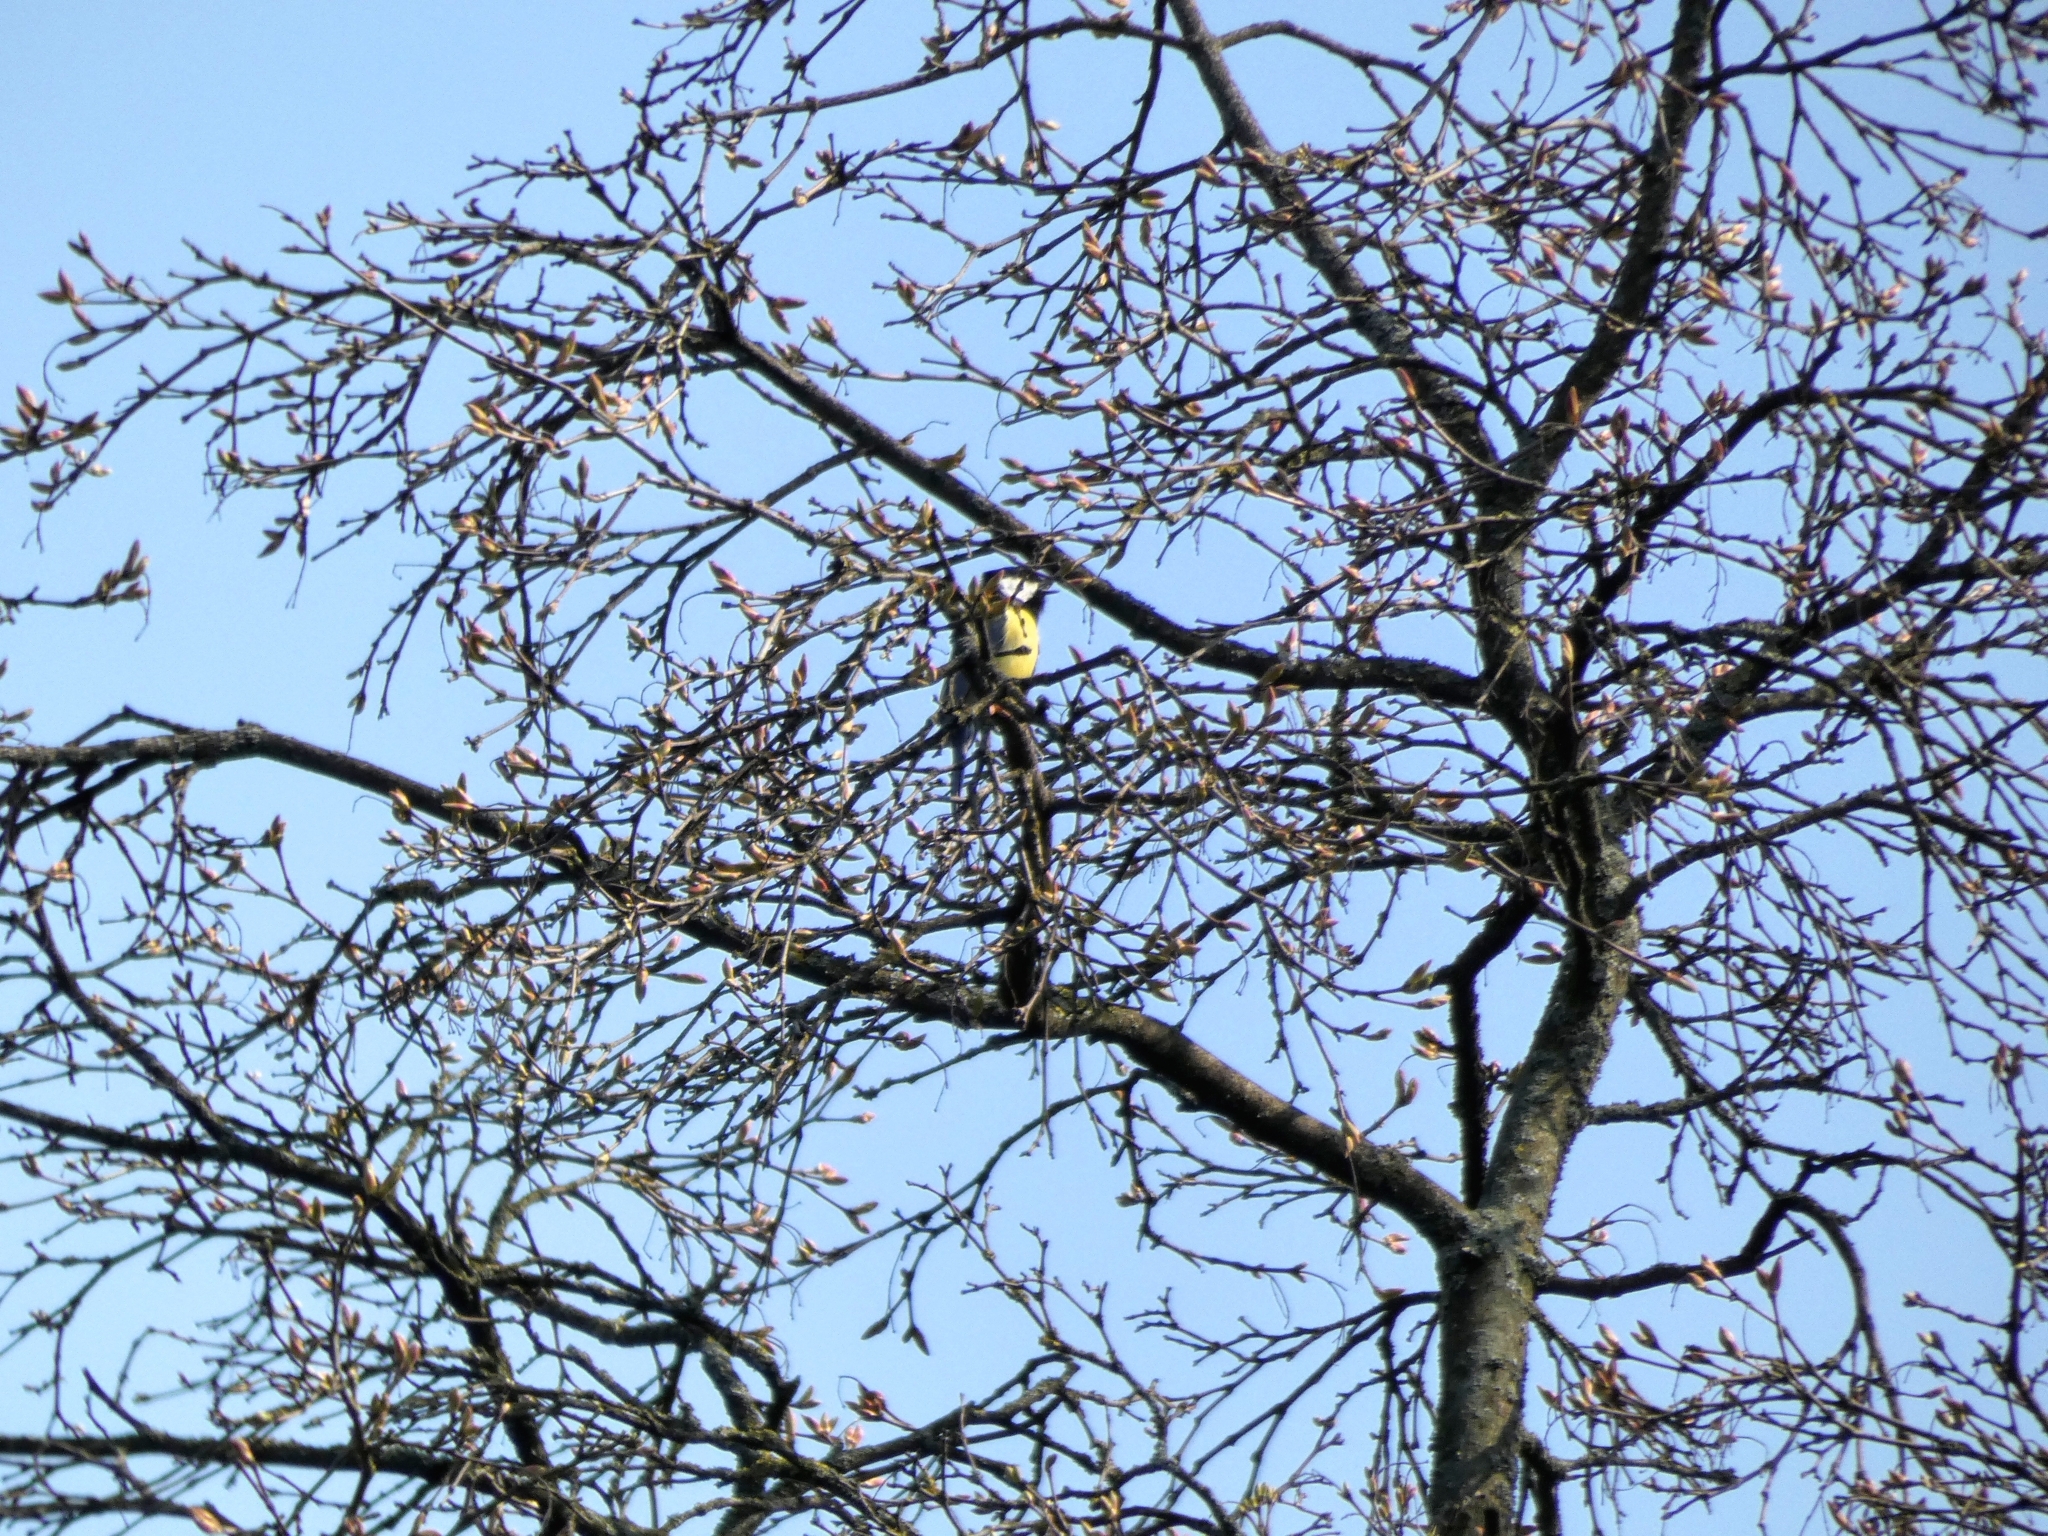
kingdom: Animalia
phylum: Chordata
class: Aves
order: Passeriformes
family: Paridae
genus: Parus
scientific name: Parus major
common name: Great tit
